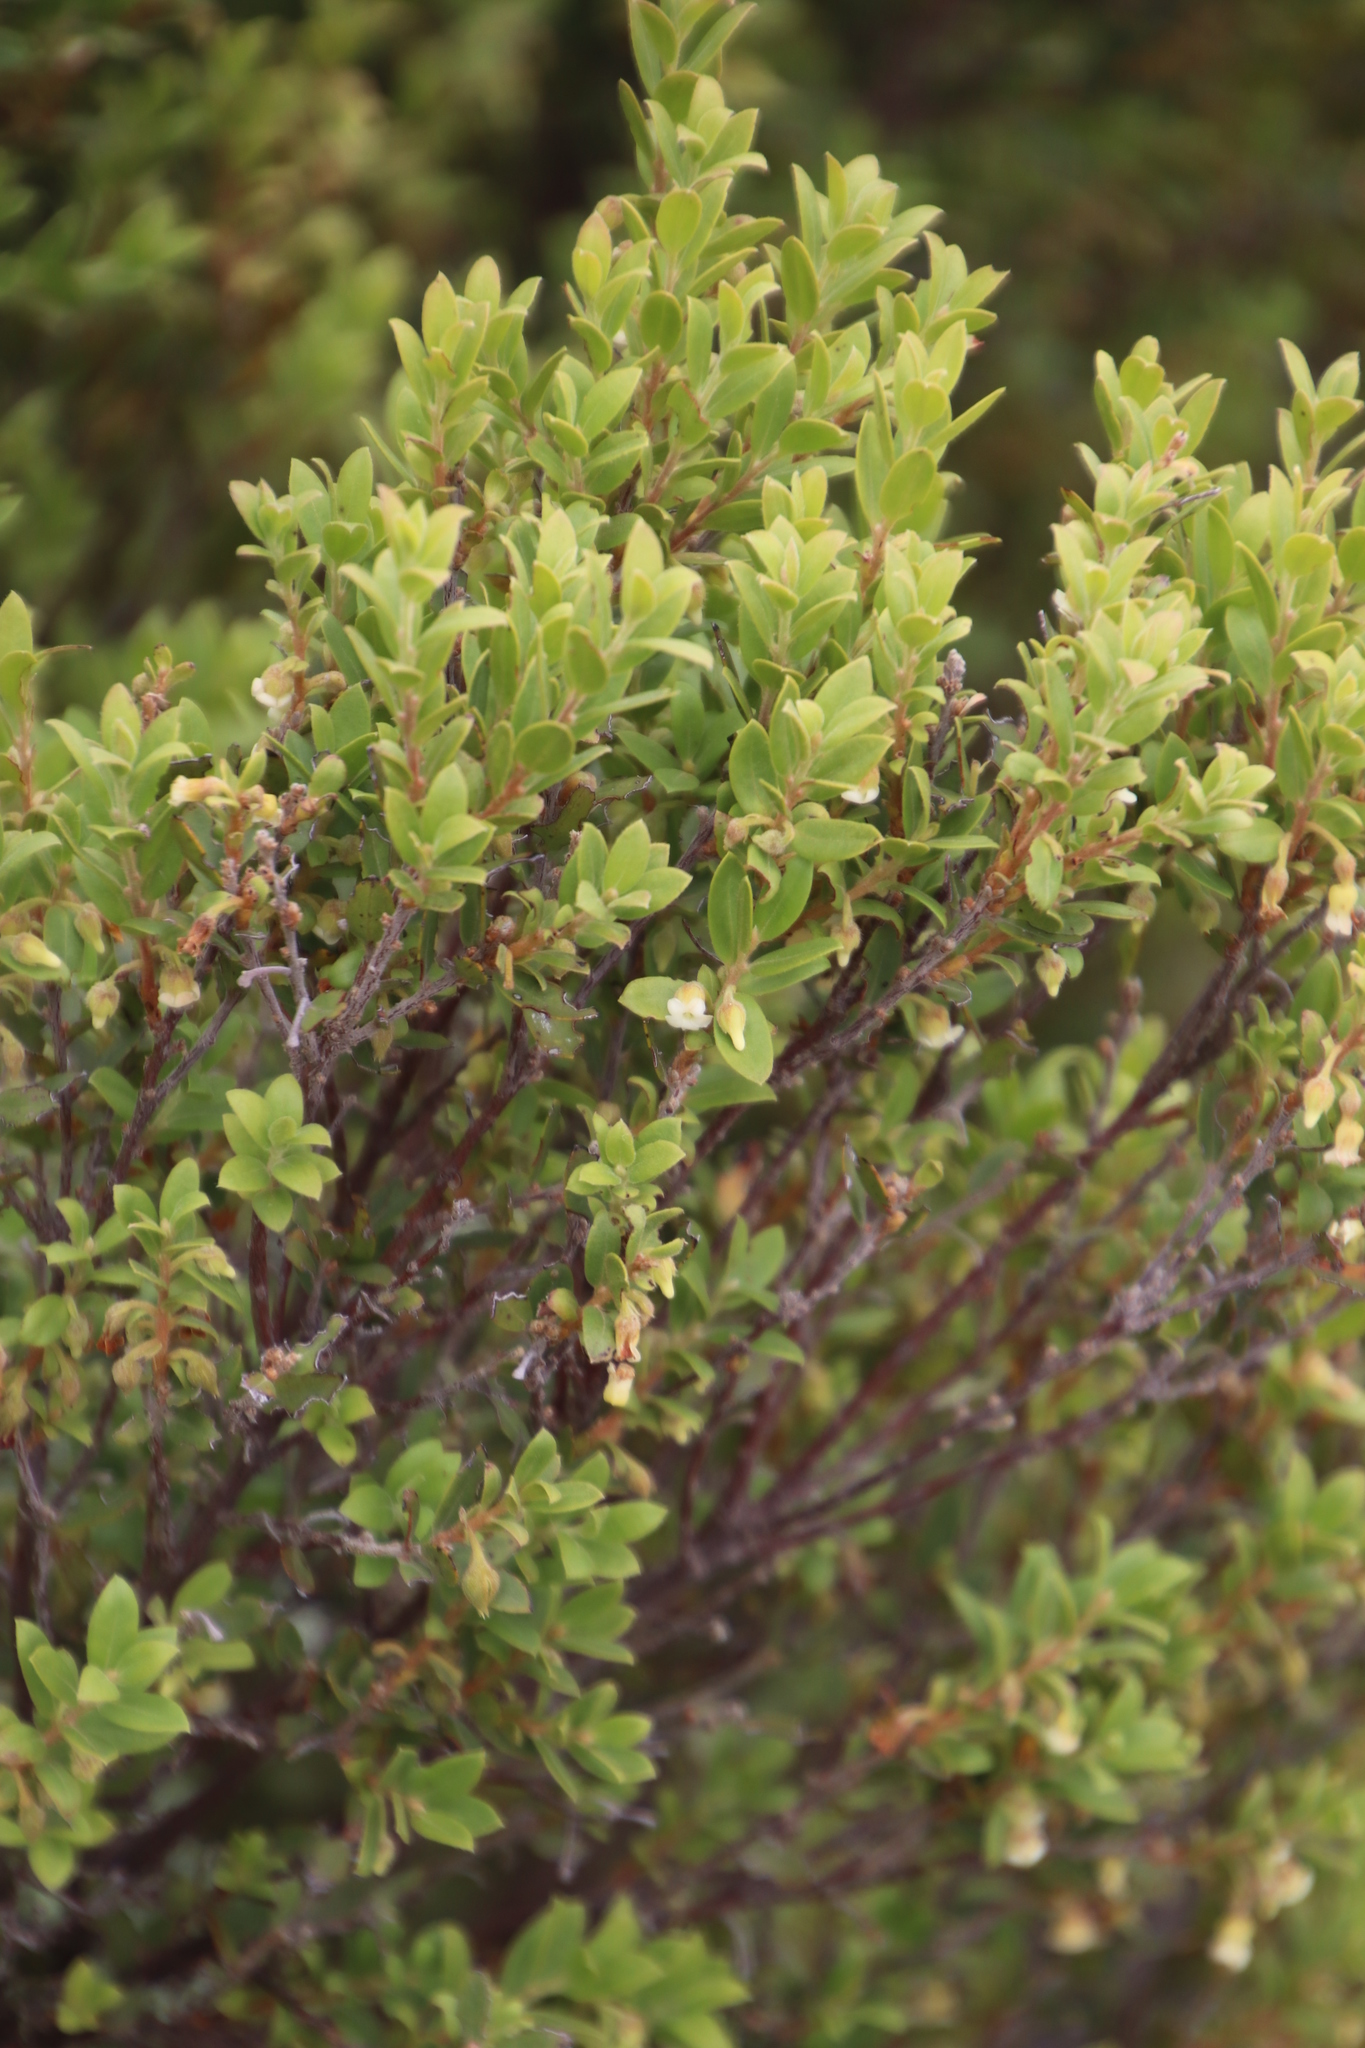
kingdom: Plantae
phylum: Tracheophyta
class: Magnoliopsida
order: Ericales
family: Ebenaceae
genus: Diospyros
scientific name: Diospyros glabra
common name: Fynbos star apple
